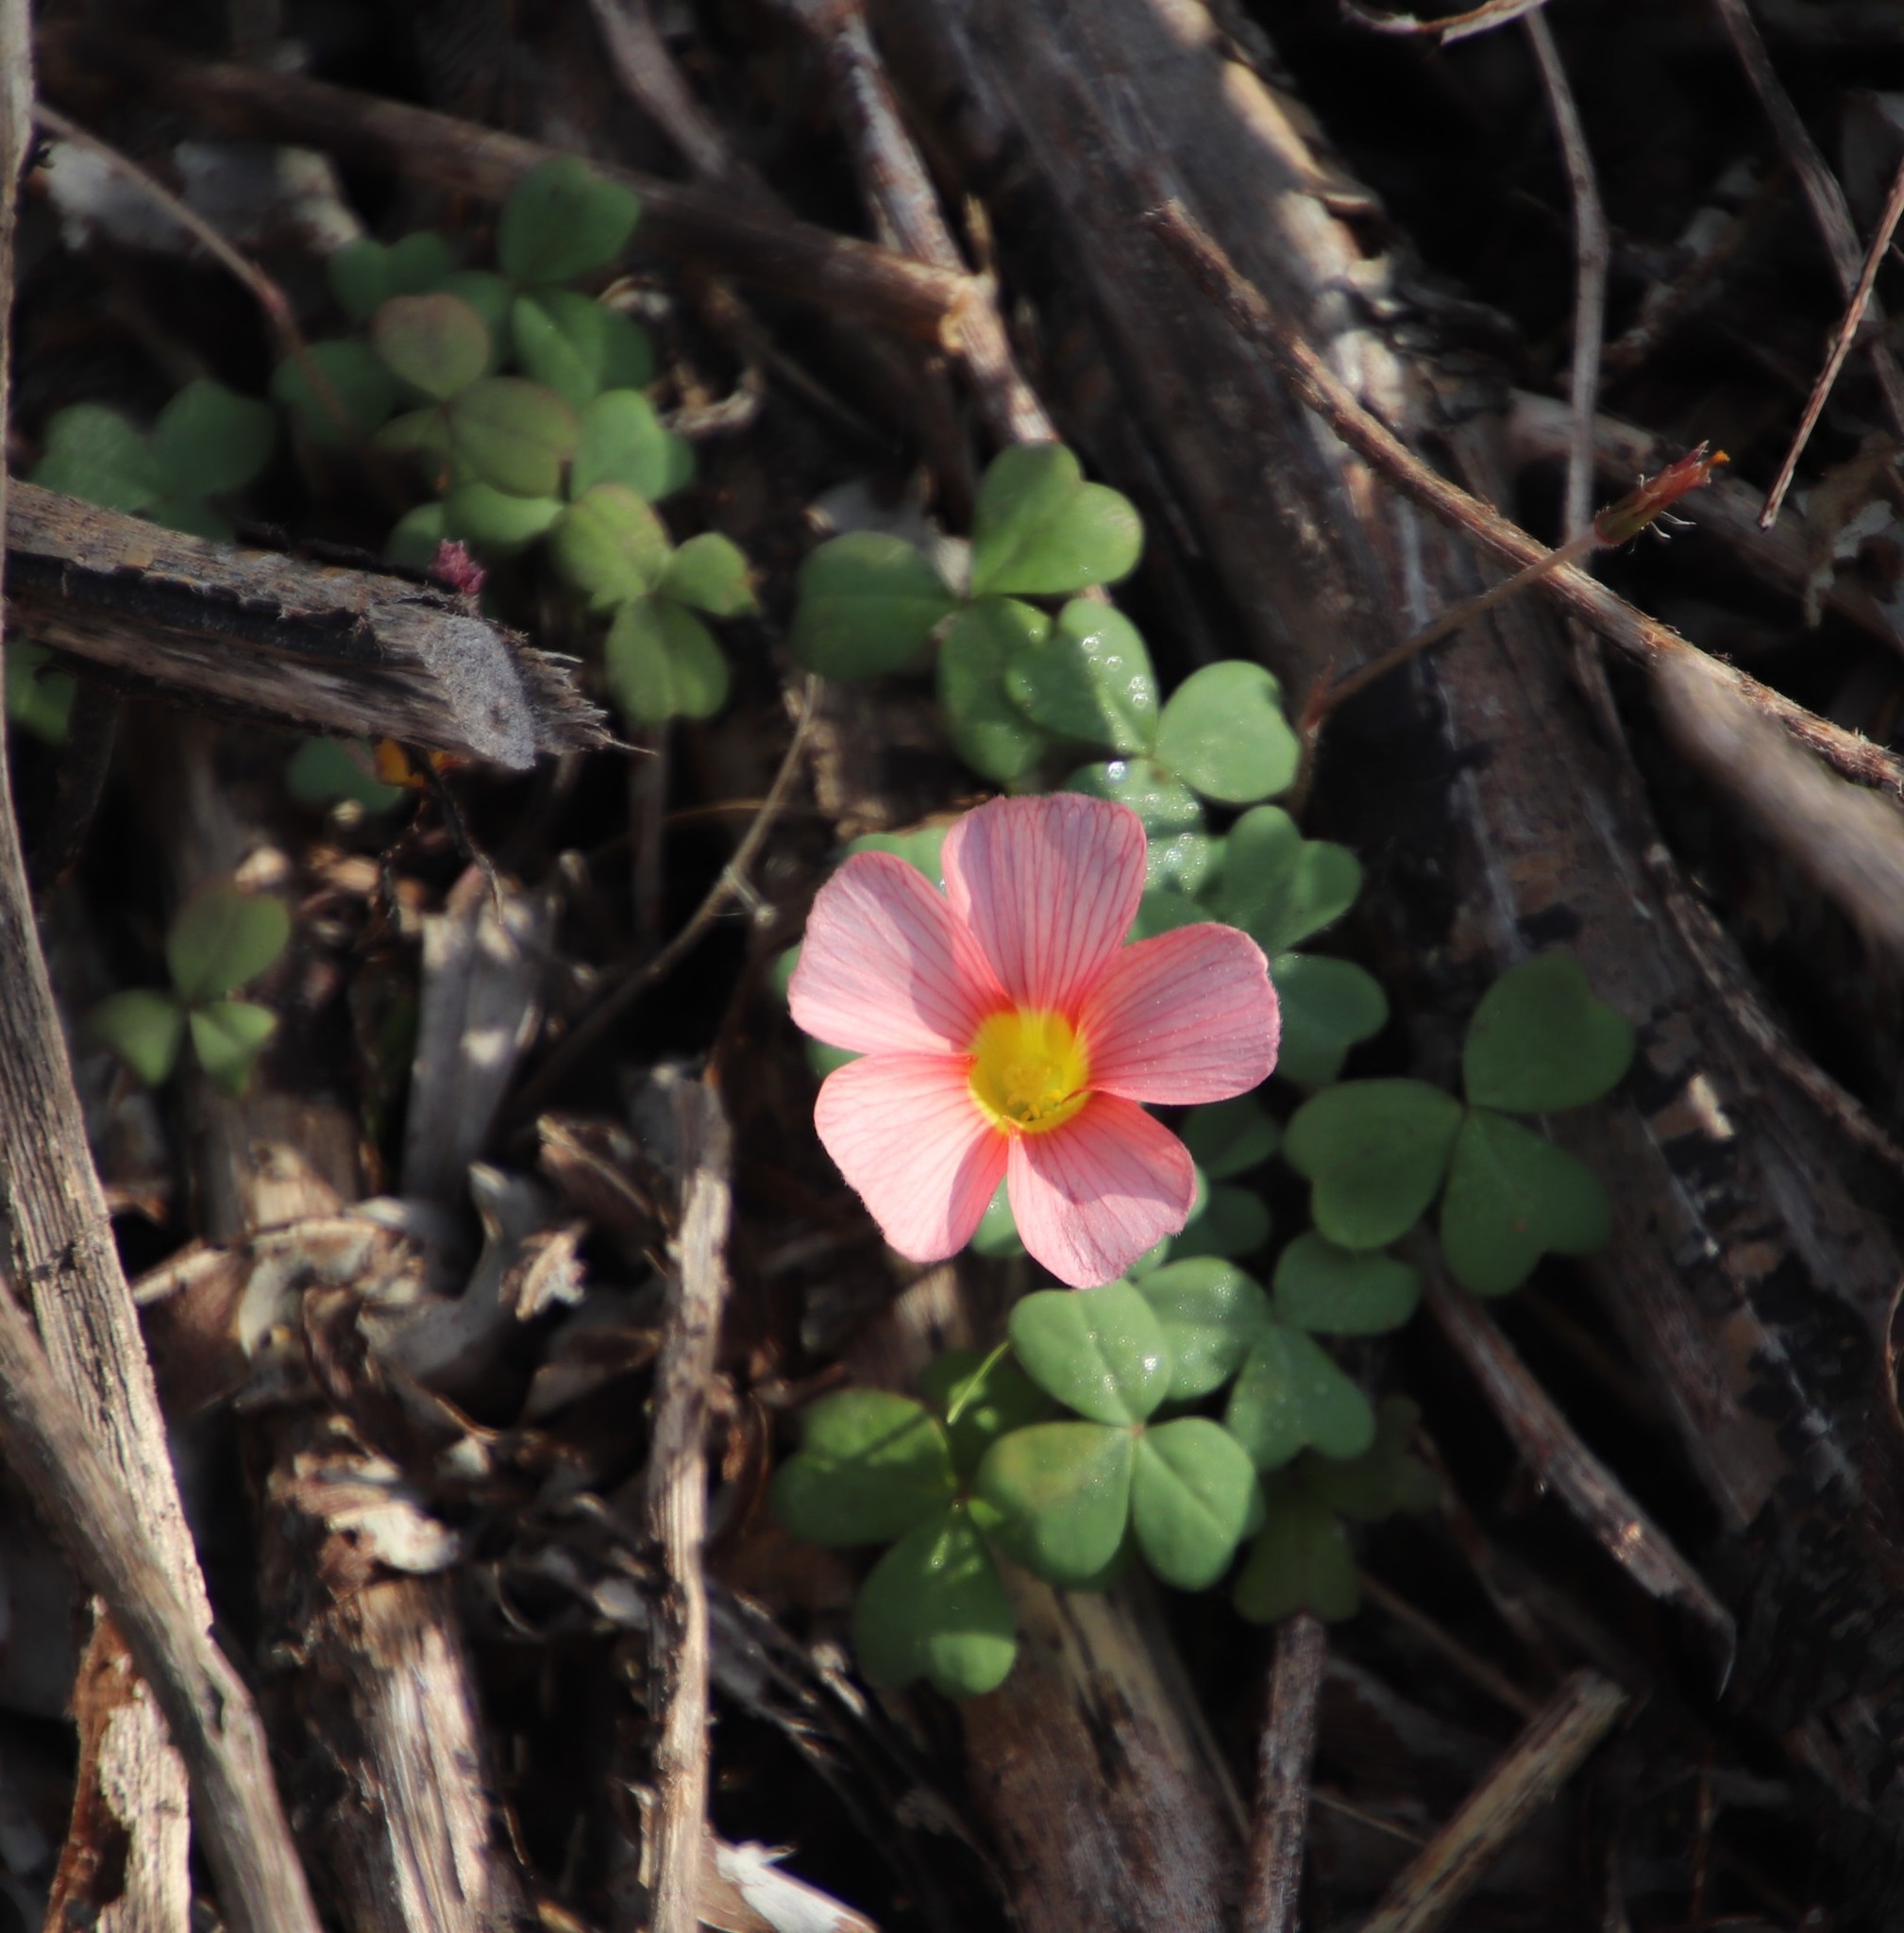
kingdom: Plantae
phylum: Tracheophyta
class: Magnoliopsida
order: Oxalidales
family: Oxalidaceae
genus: Oxalis
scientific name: Oxalis obtusa
